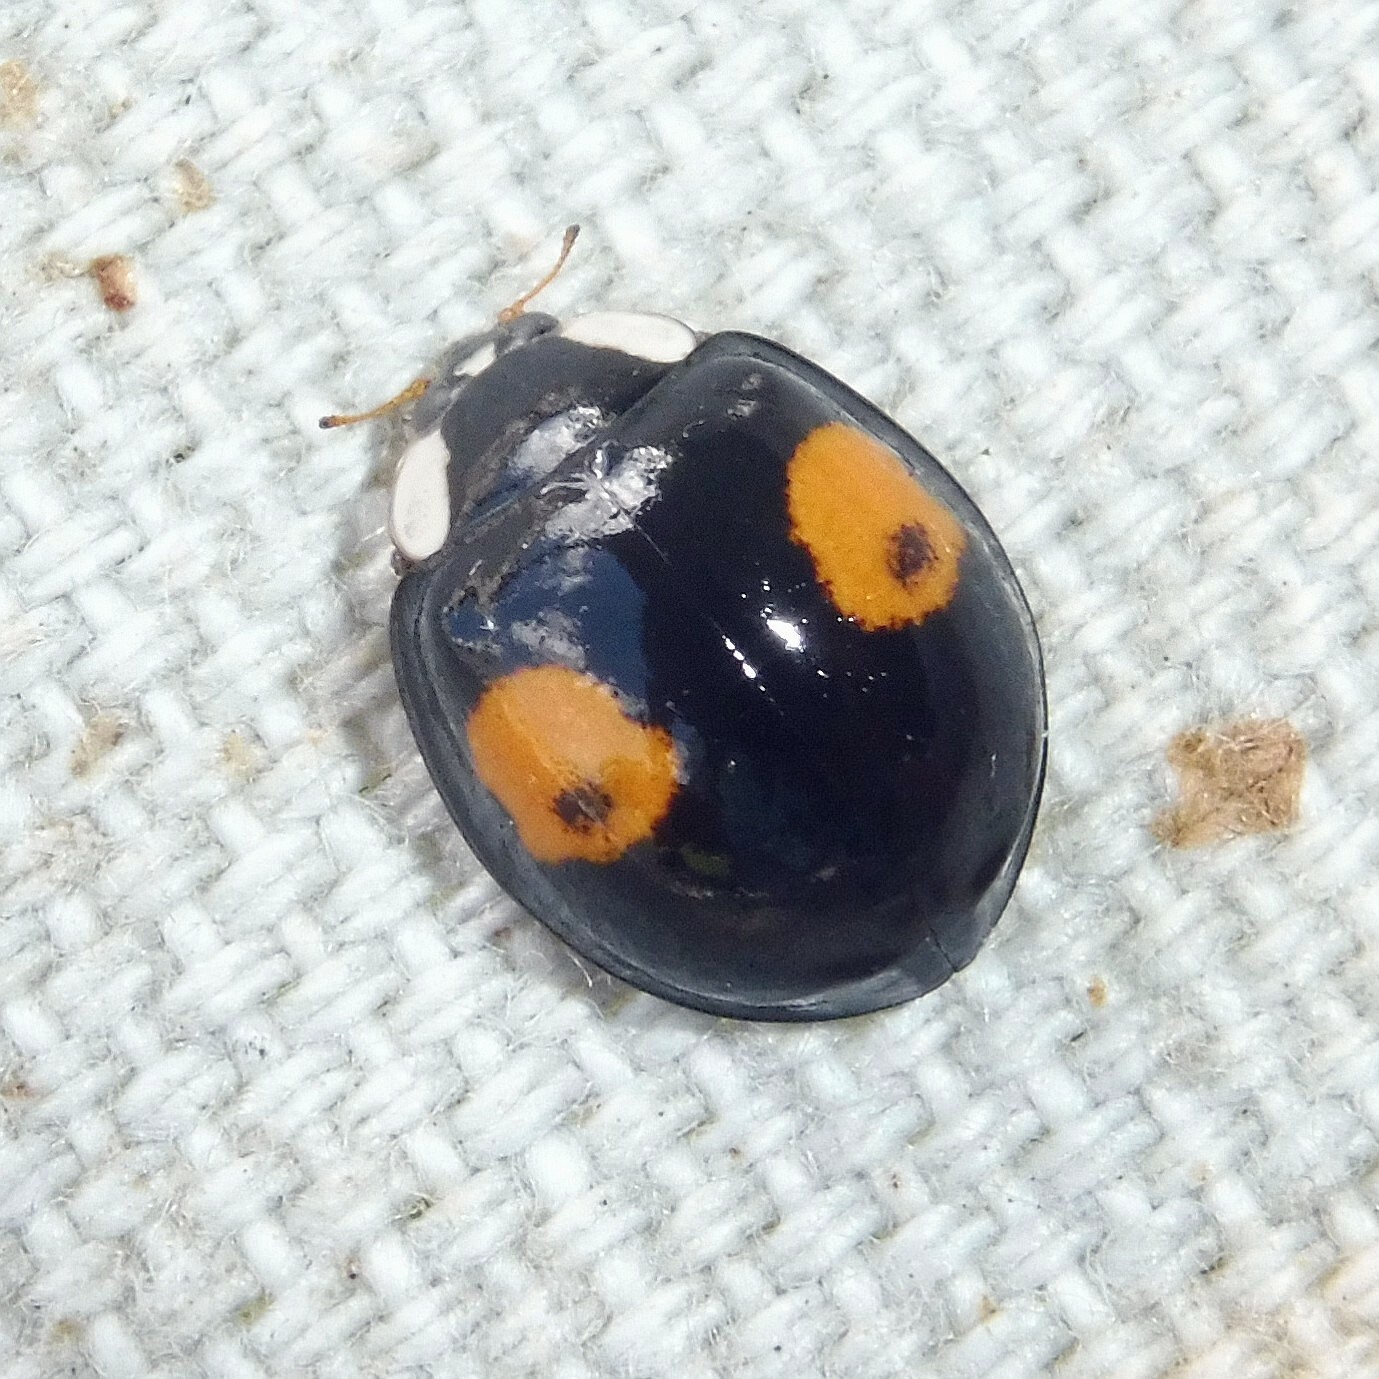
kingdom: Animalia
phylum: Arthropoda
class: Insecta
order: Coleoptera
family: Coccinellidae
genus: Harmonia
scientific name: Harmonia axyridis
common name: Harlequin ladybird
